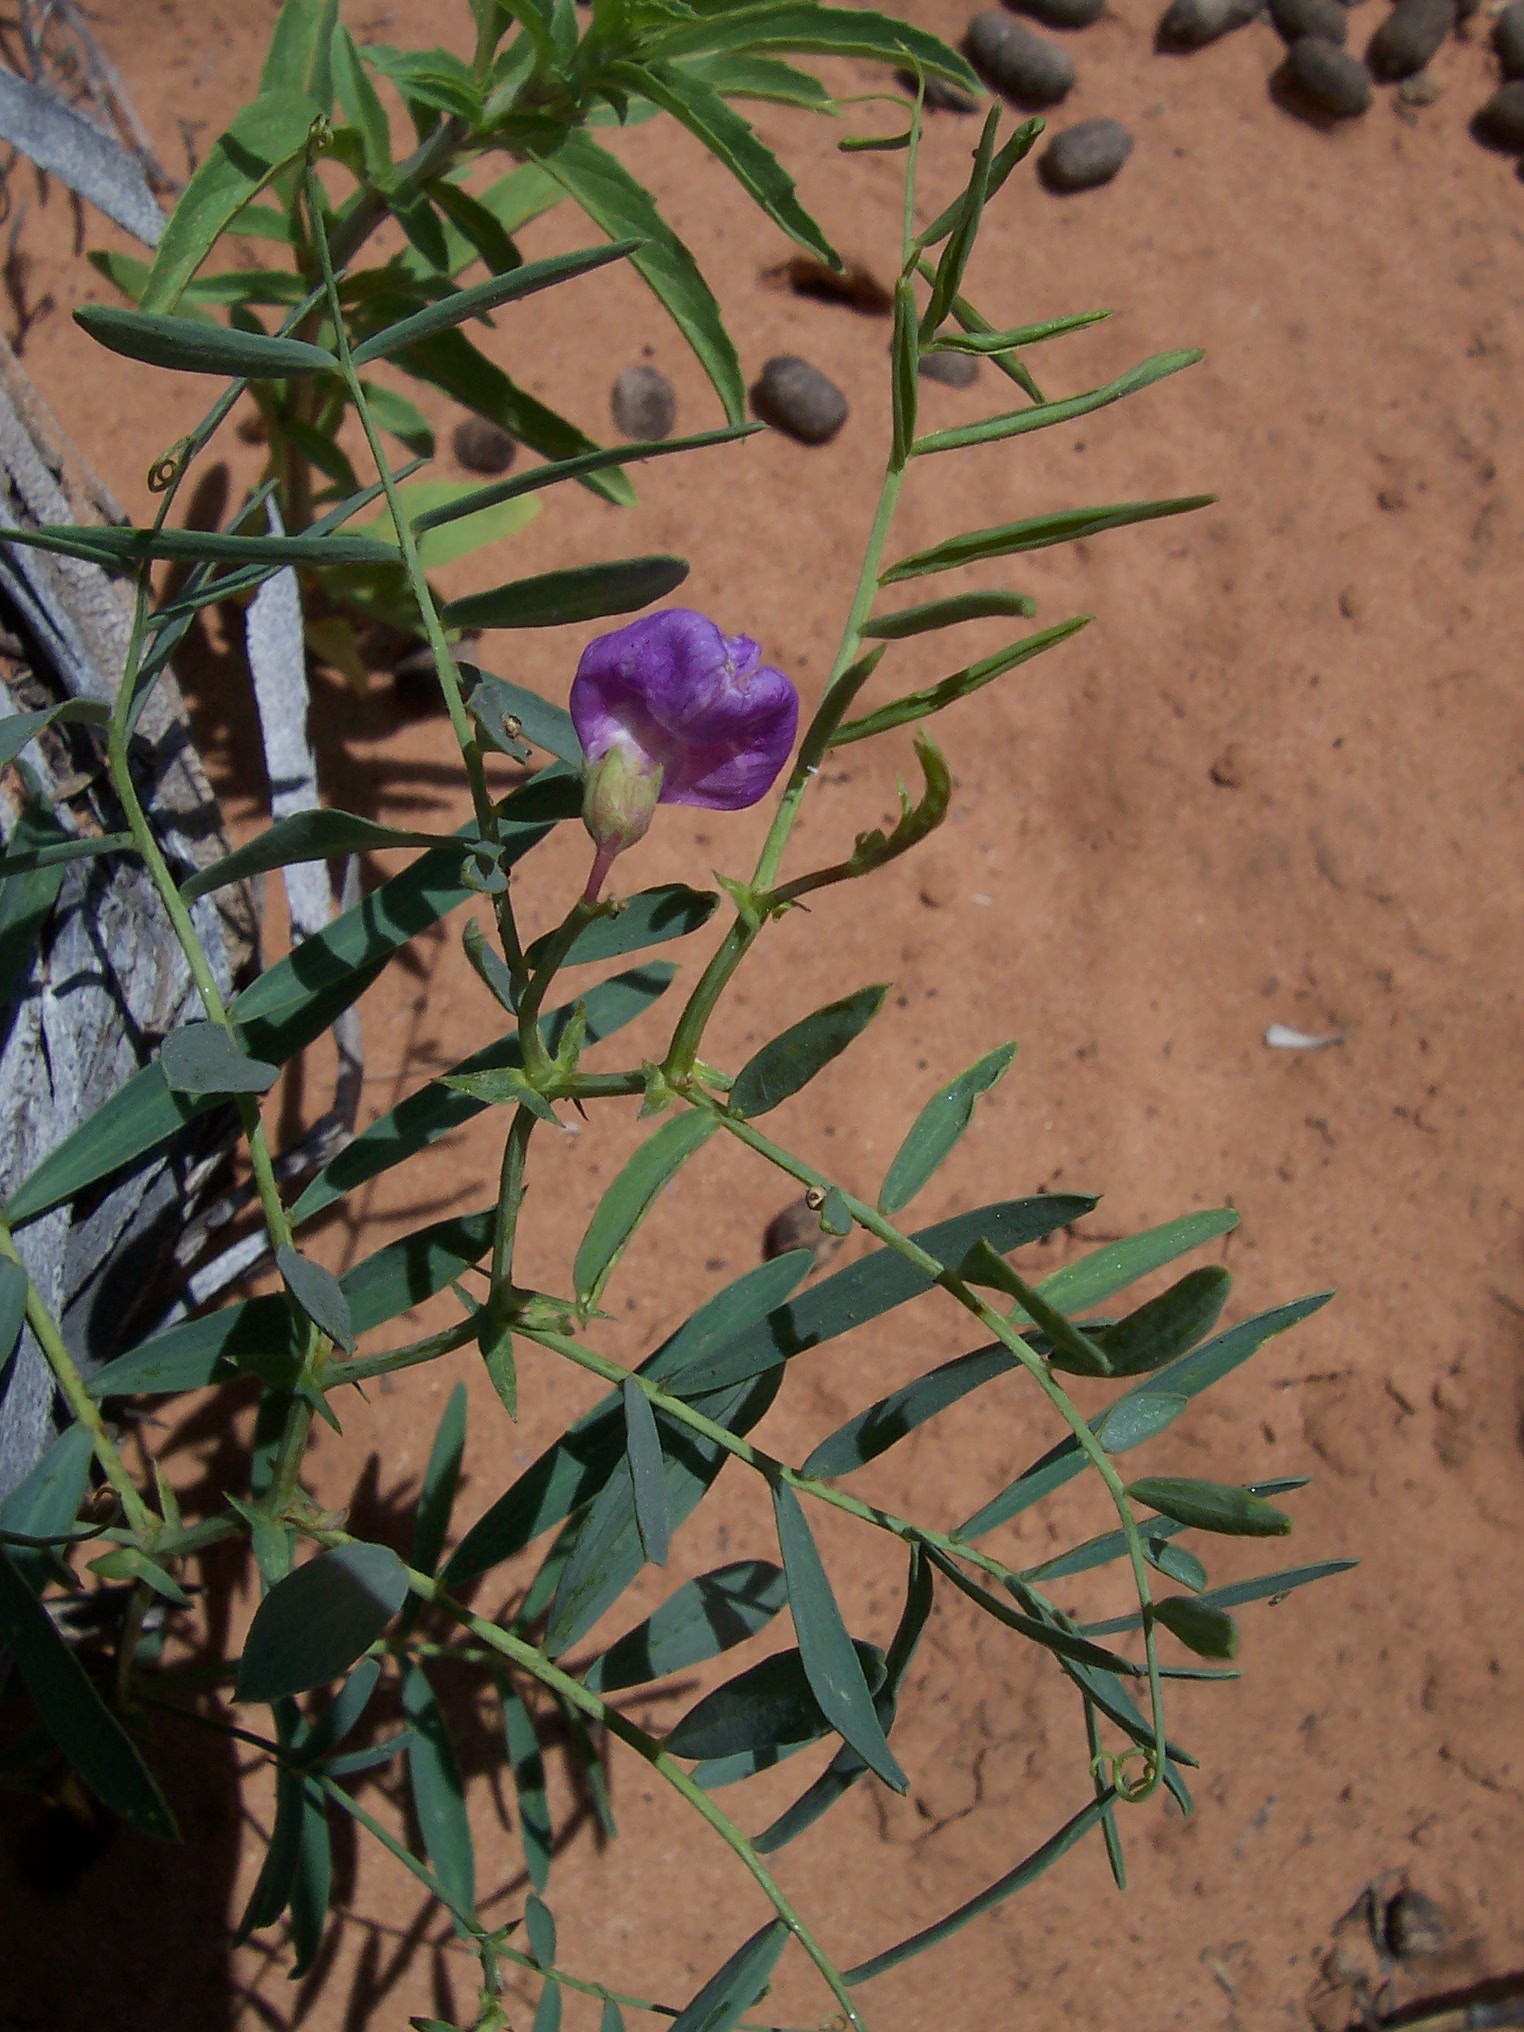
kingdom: Plantae
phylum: Tracheophyta
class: Magnoliopsida
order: Fabales
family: Fabaceae
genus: Lathyrus
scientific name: Lathyrus brachycalyx
